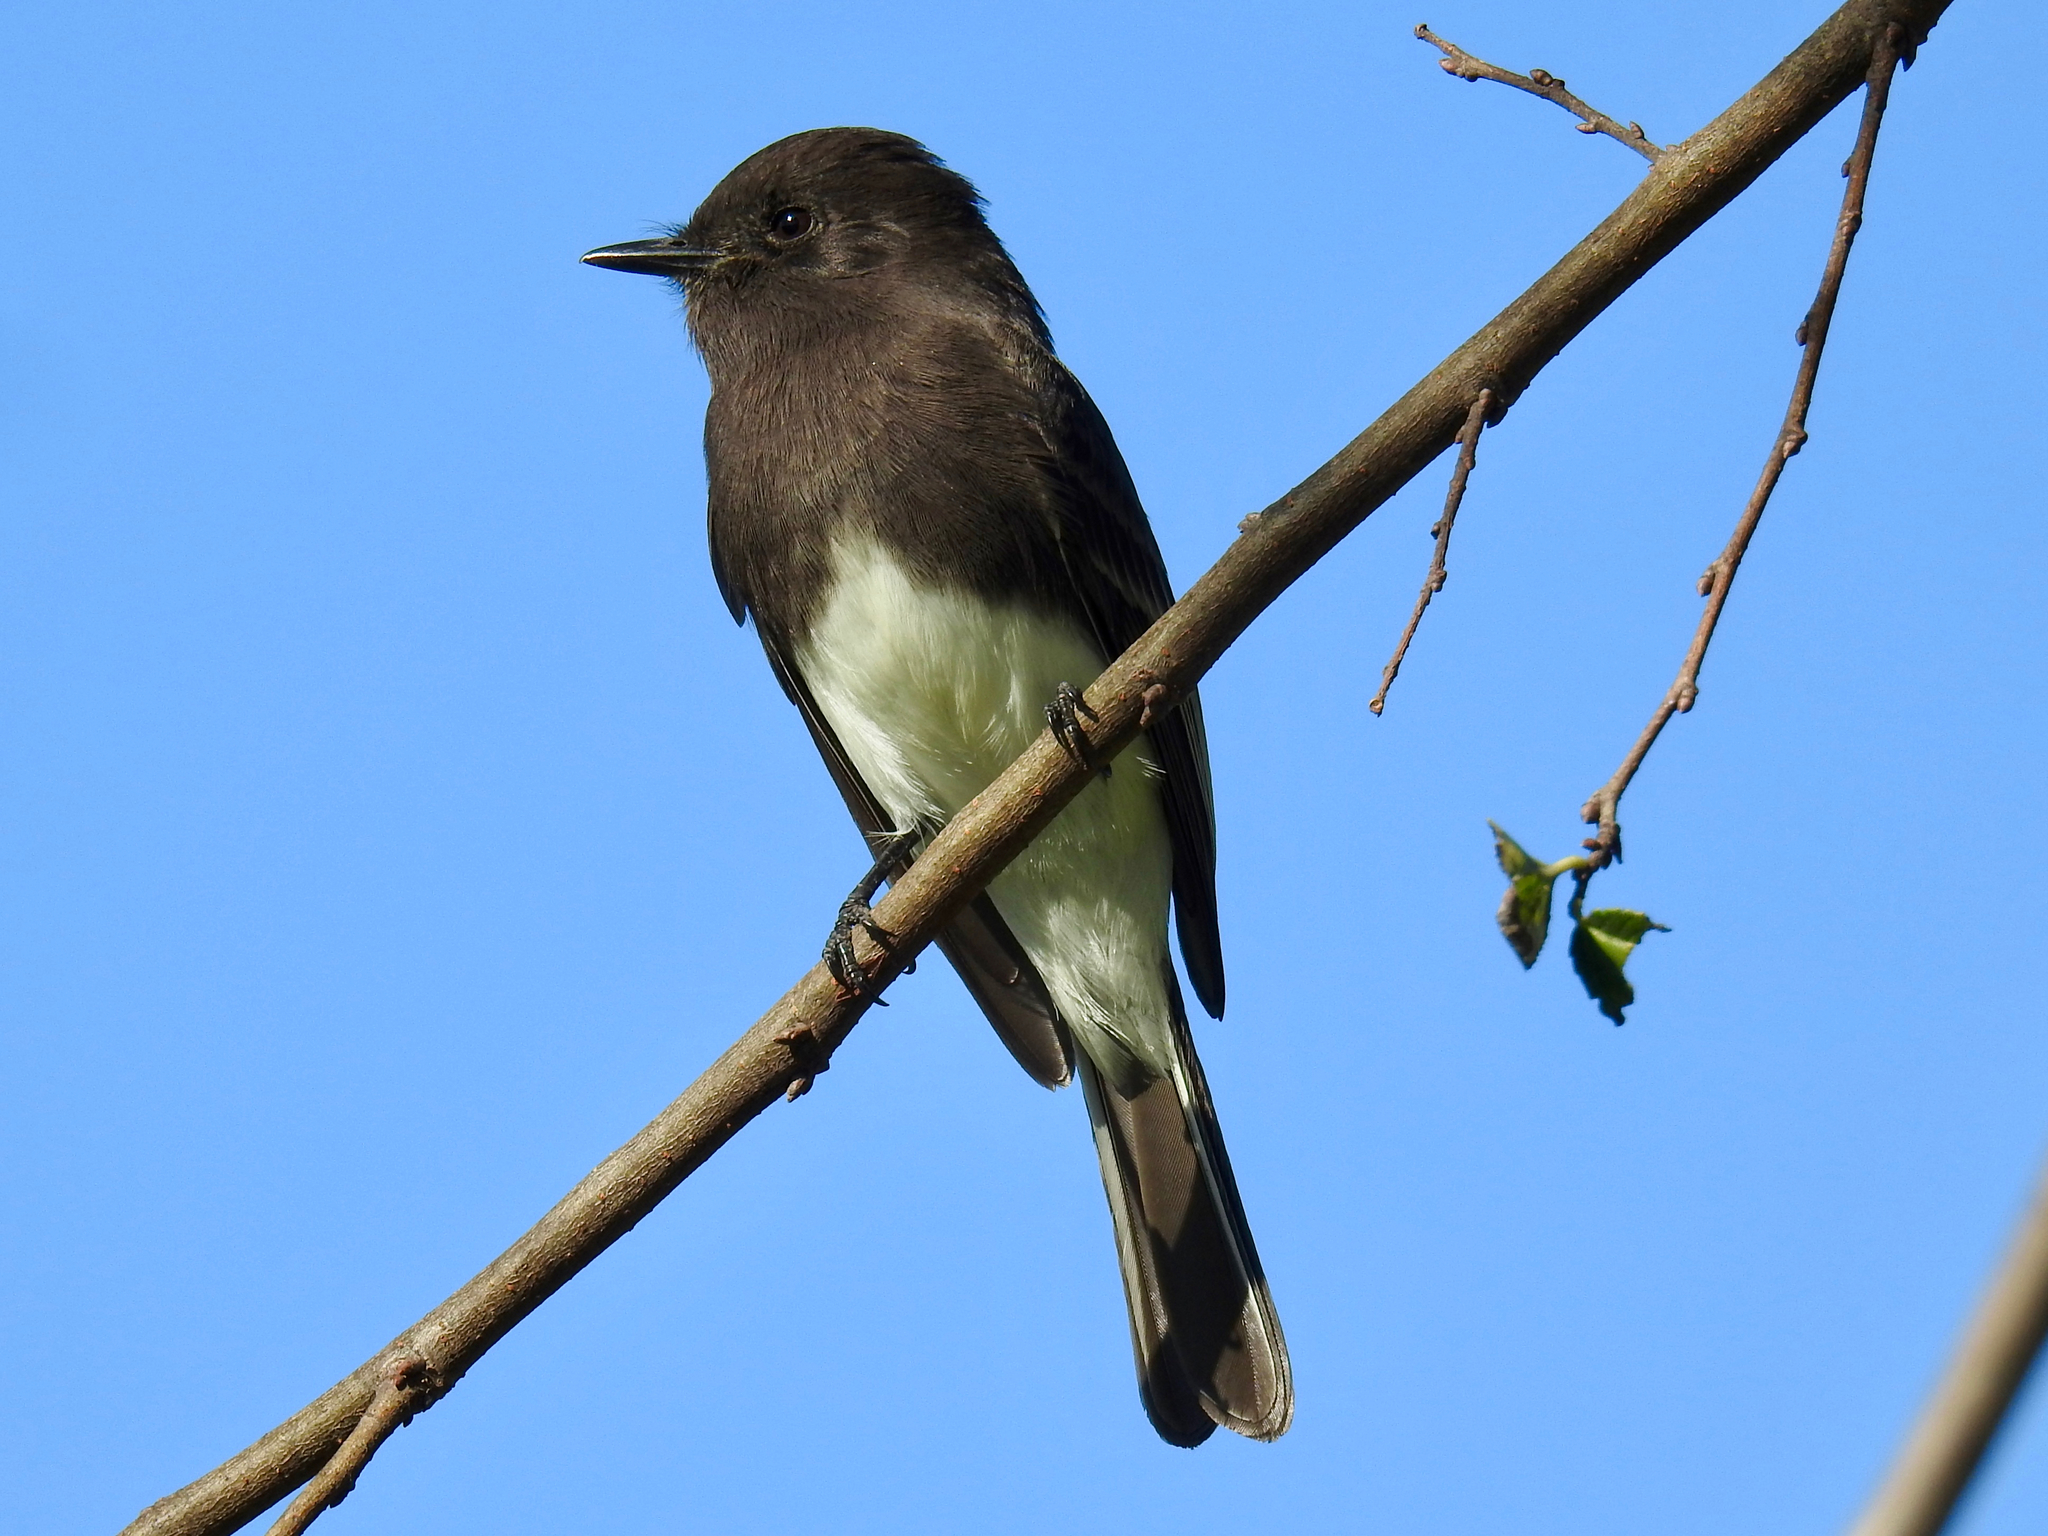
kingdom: Animalia
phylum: Chordata
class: Aves
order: Passeriformes
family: Tyrannidae
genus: Sayornis
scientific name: Sayornis nigricans
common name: Black phoebe
